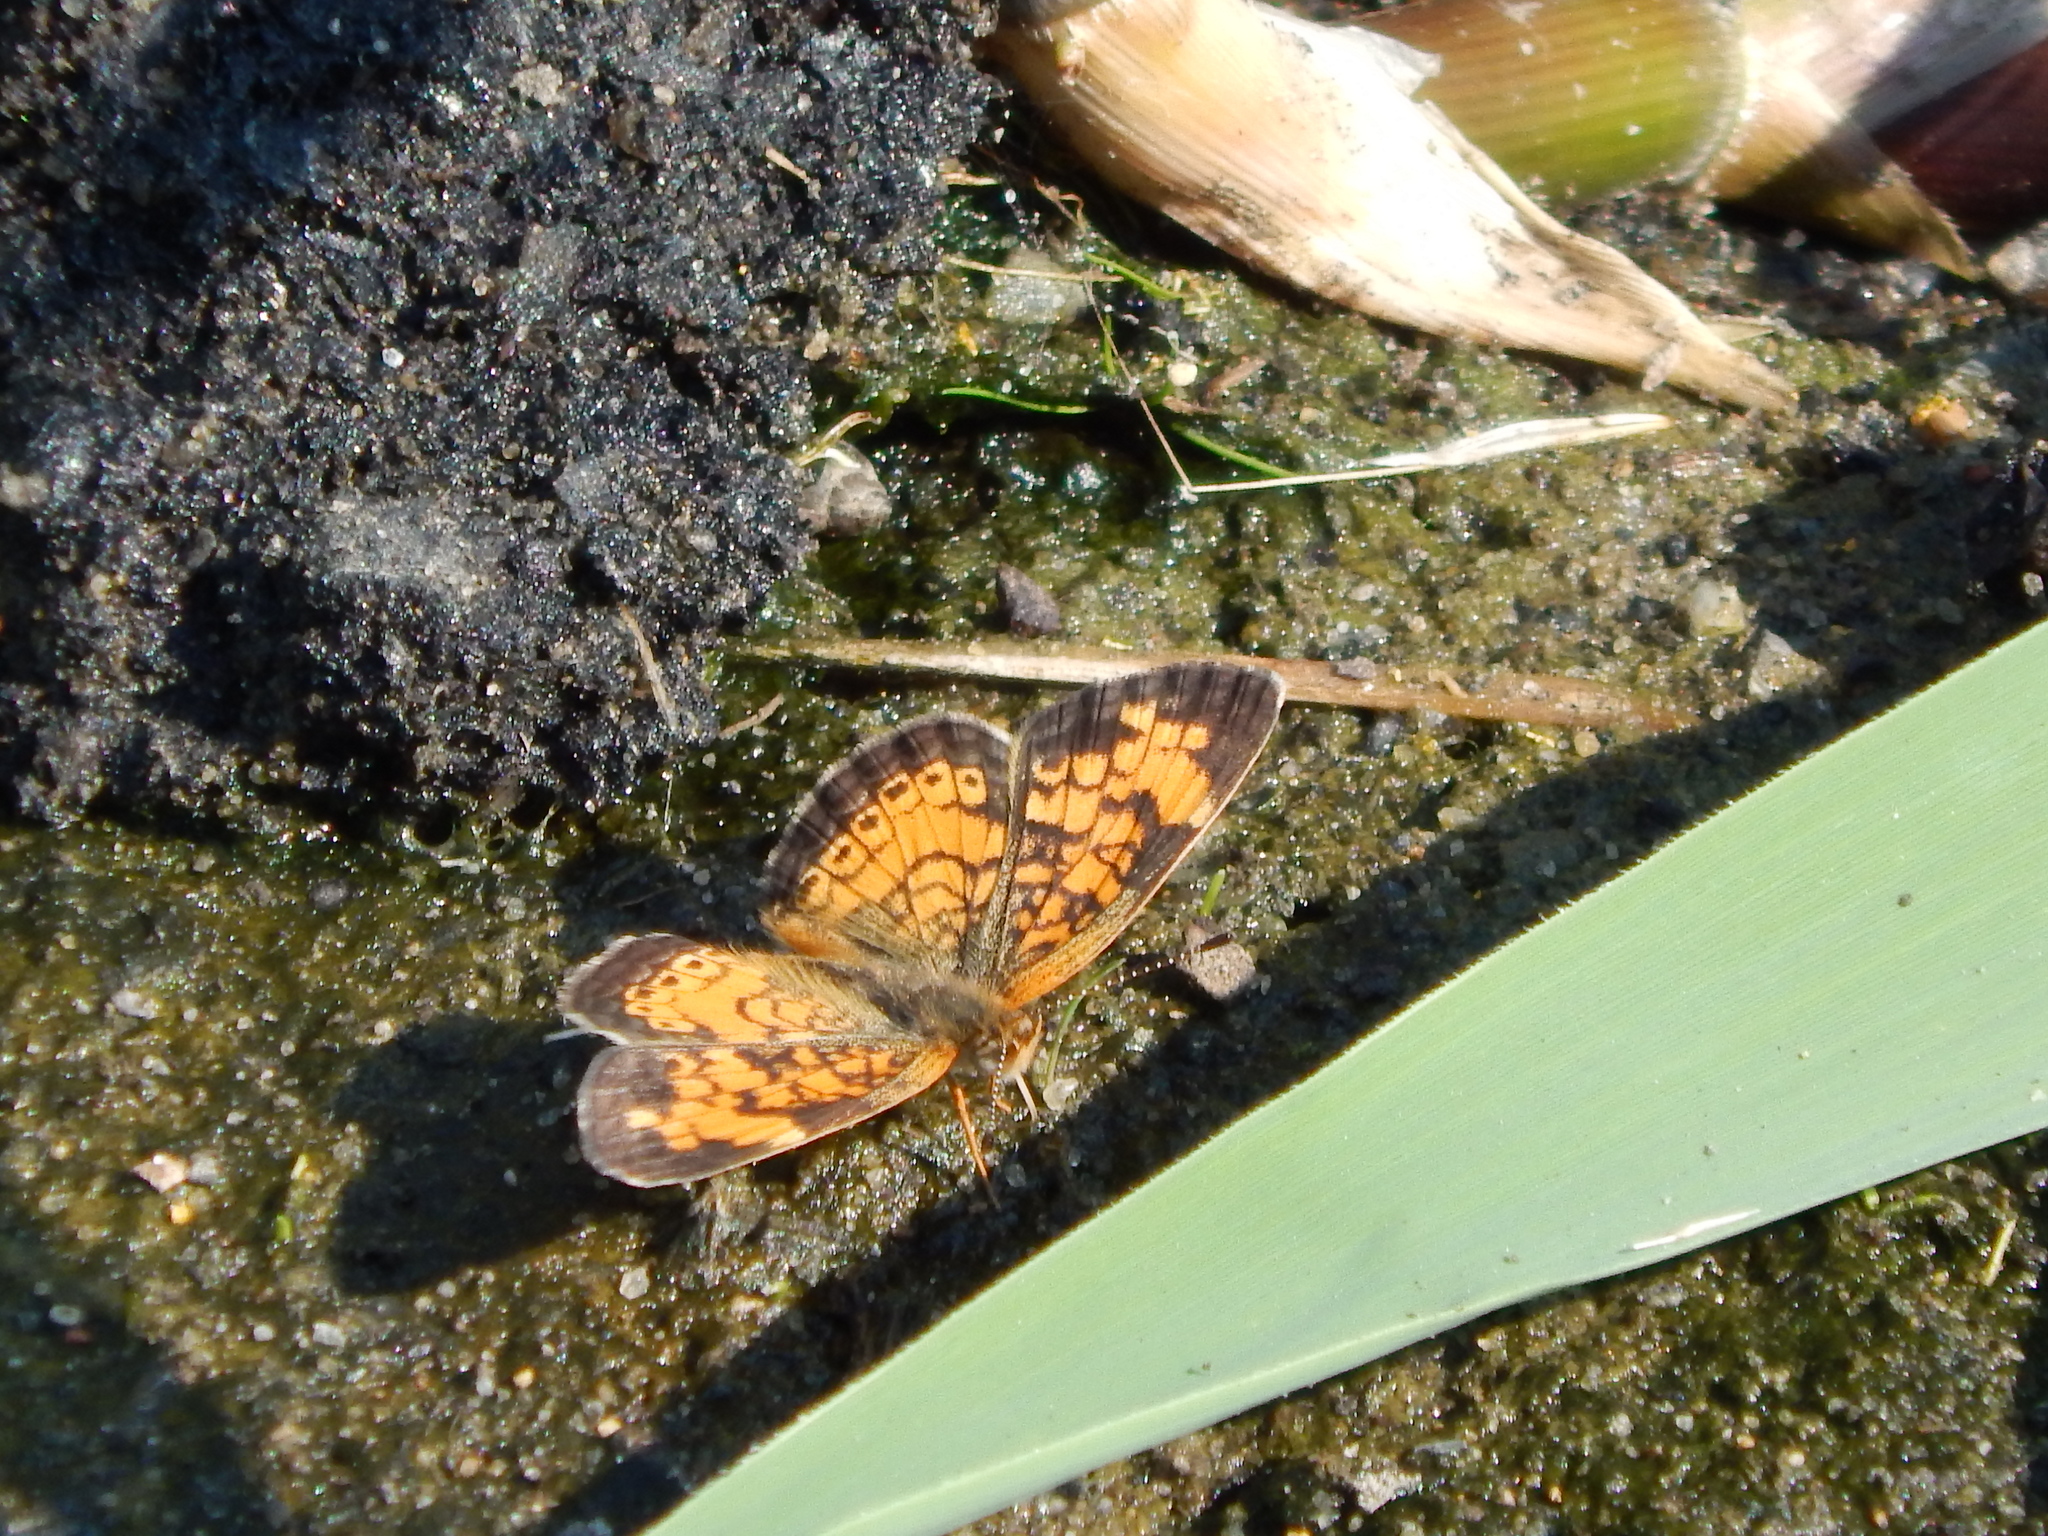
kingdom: Animalia
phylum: Arthropoda
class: Insecta
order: Lepidoptera
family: Nymphalidae
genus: Phyciodes
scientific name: Phyciodes tharos
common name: Pearl crescent
